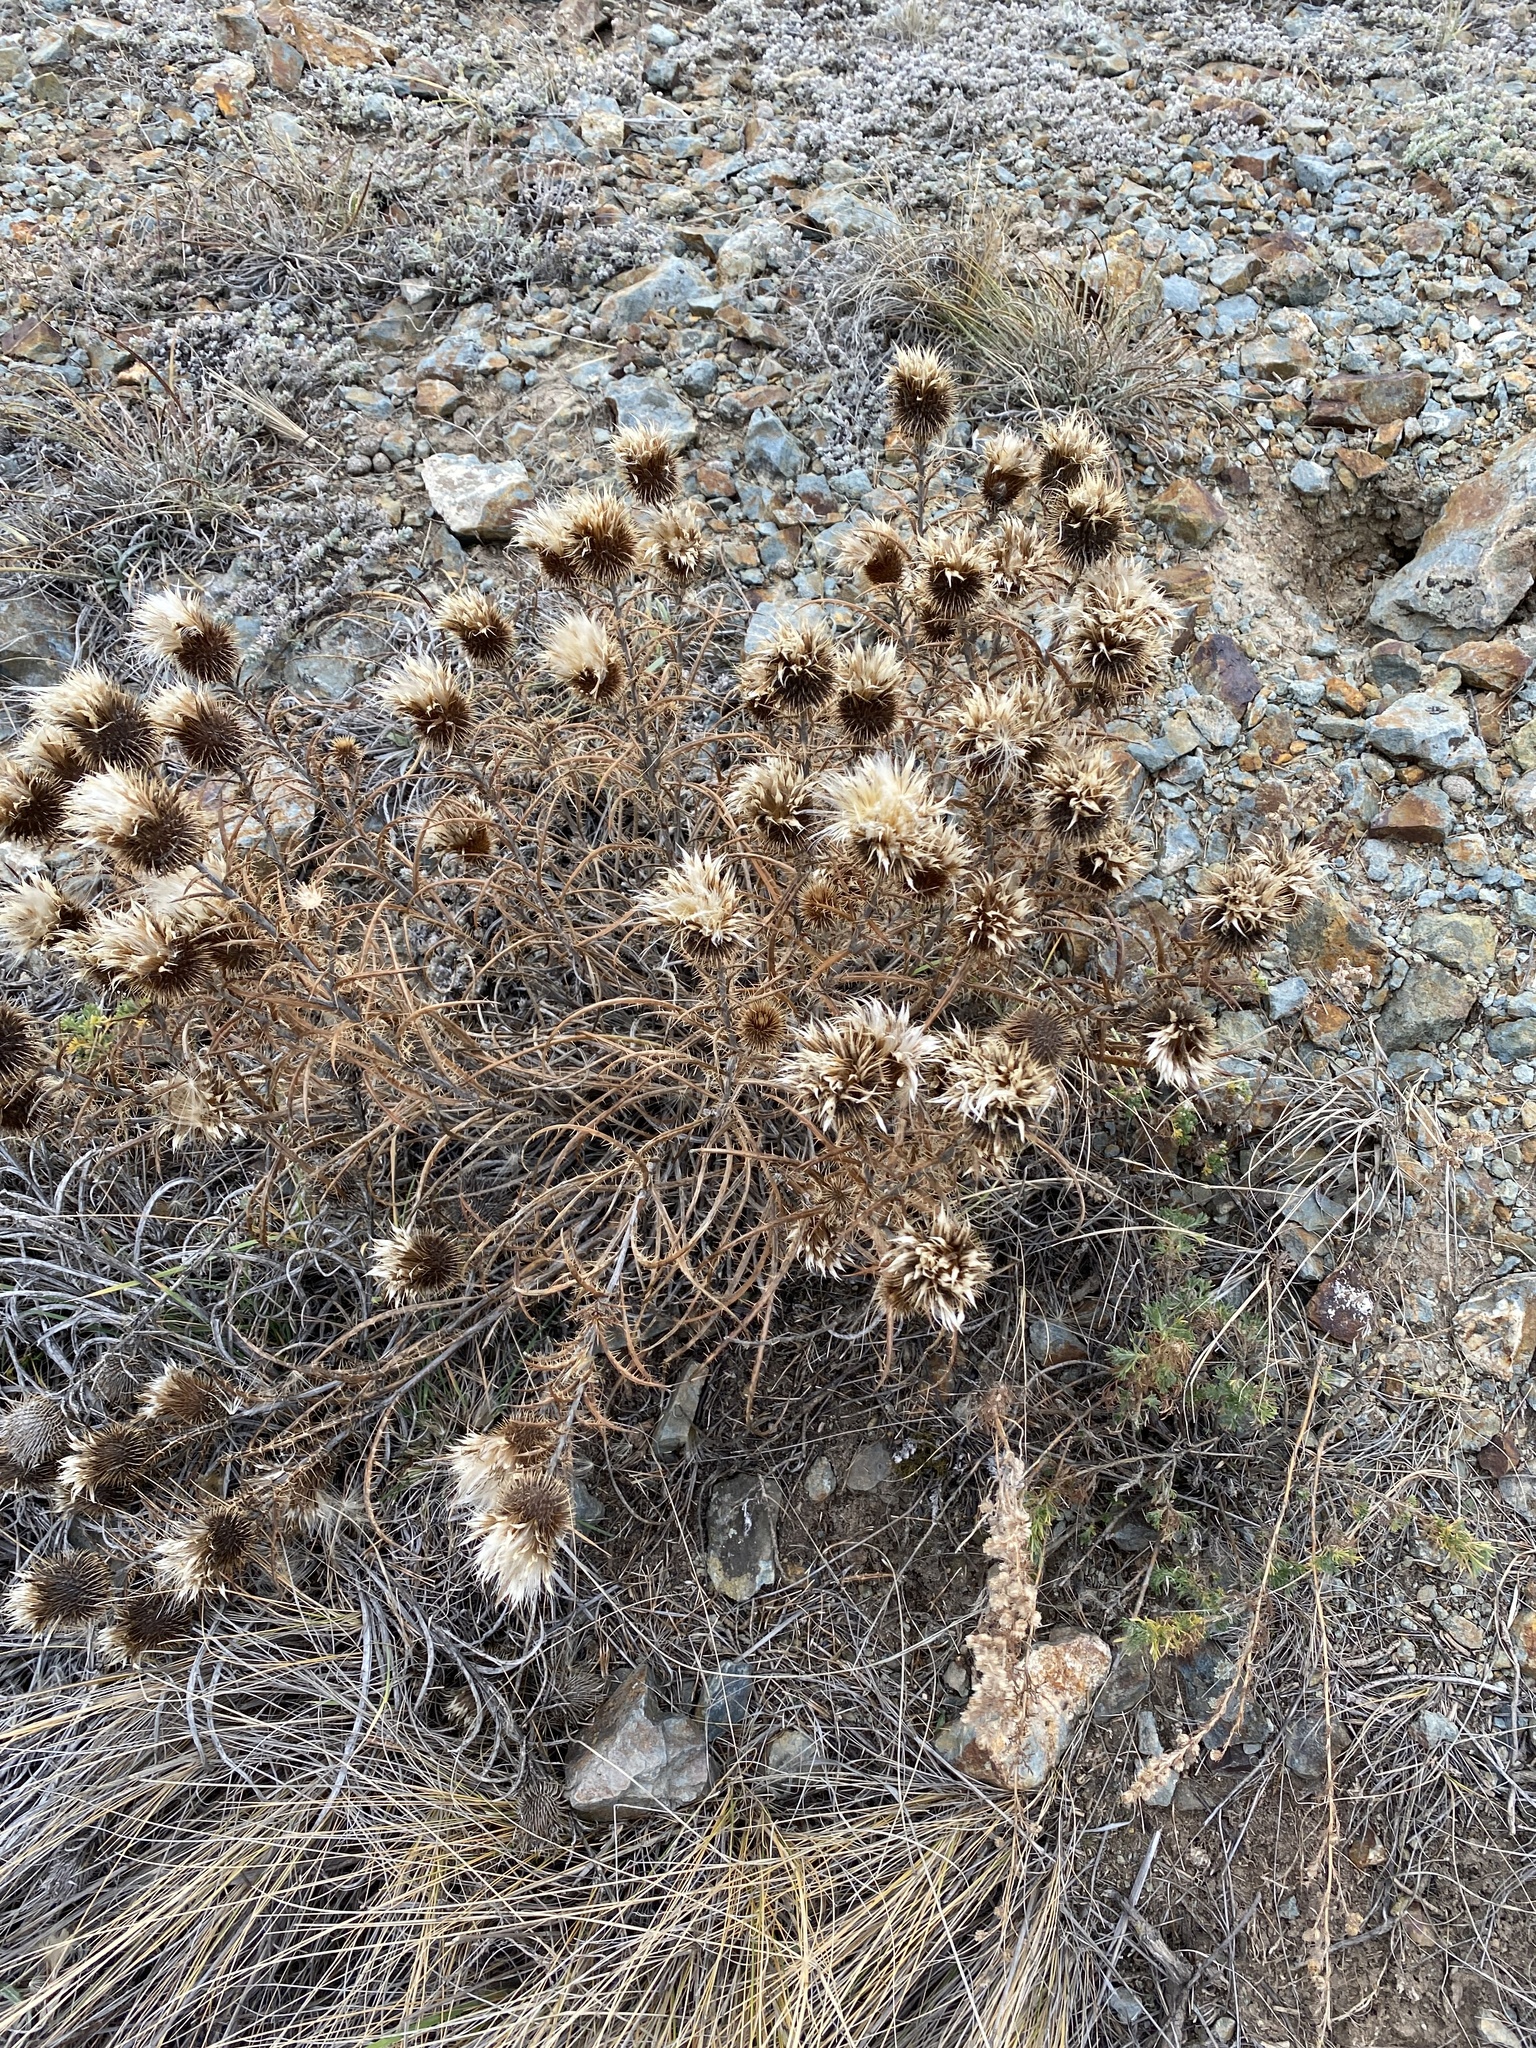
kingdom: Plantae
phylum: Tracheophyta
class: Magnoliopsida
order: Asterales
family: Asteraceae
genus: Ancathia
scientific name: Ancathia igniaria
